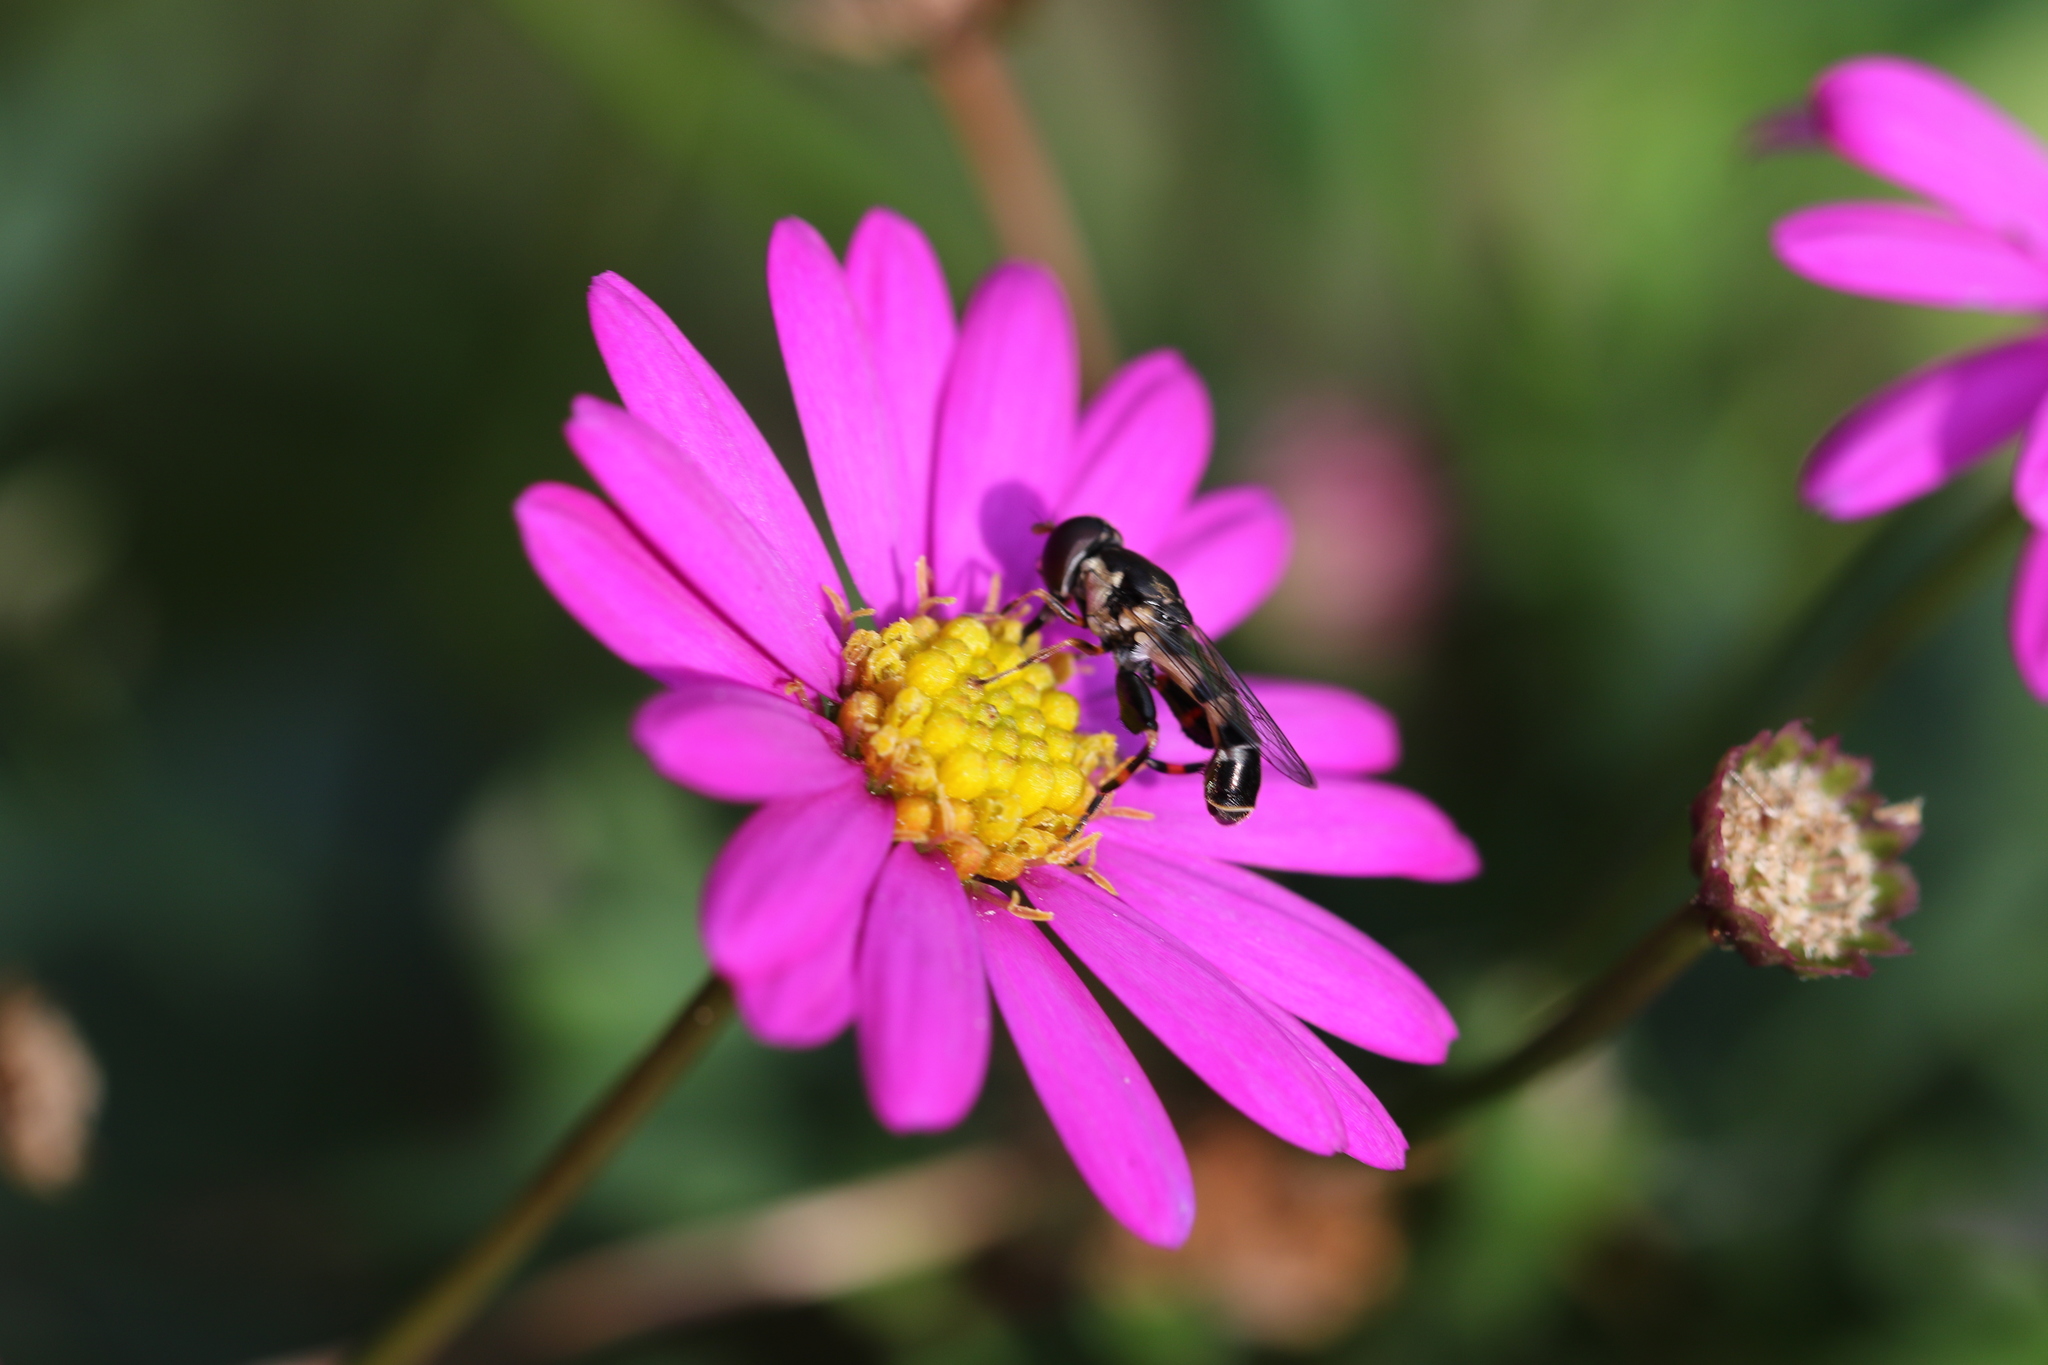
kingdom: Animalia
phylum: Arthropoda
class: Insecta
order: Diptera
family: Syrphidae
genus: Syritta
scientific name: Syritta pipiens
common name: Hover fly
